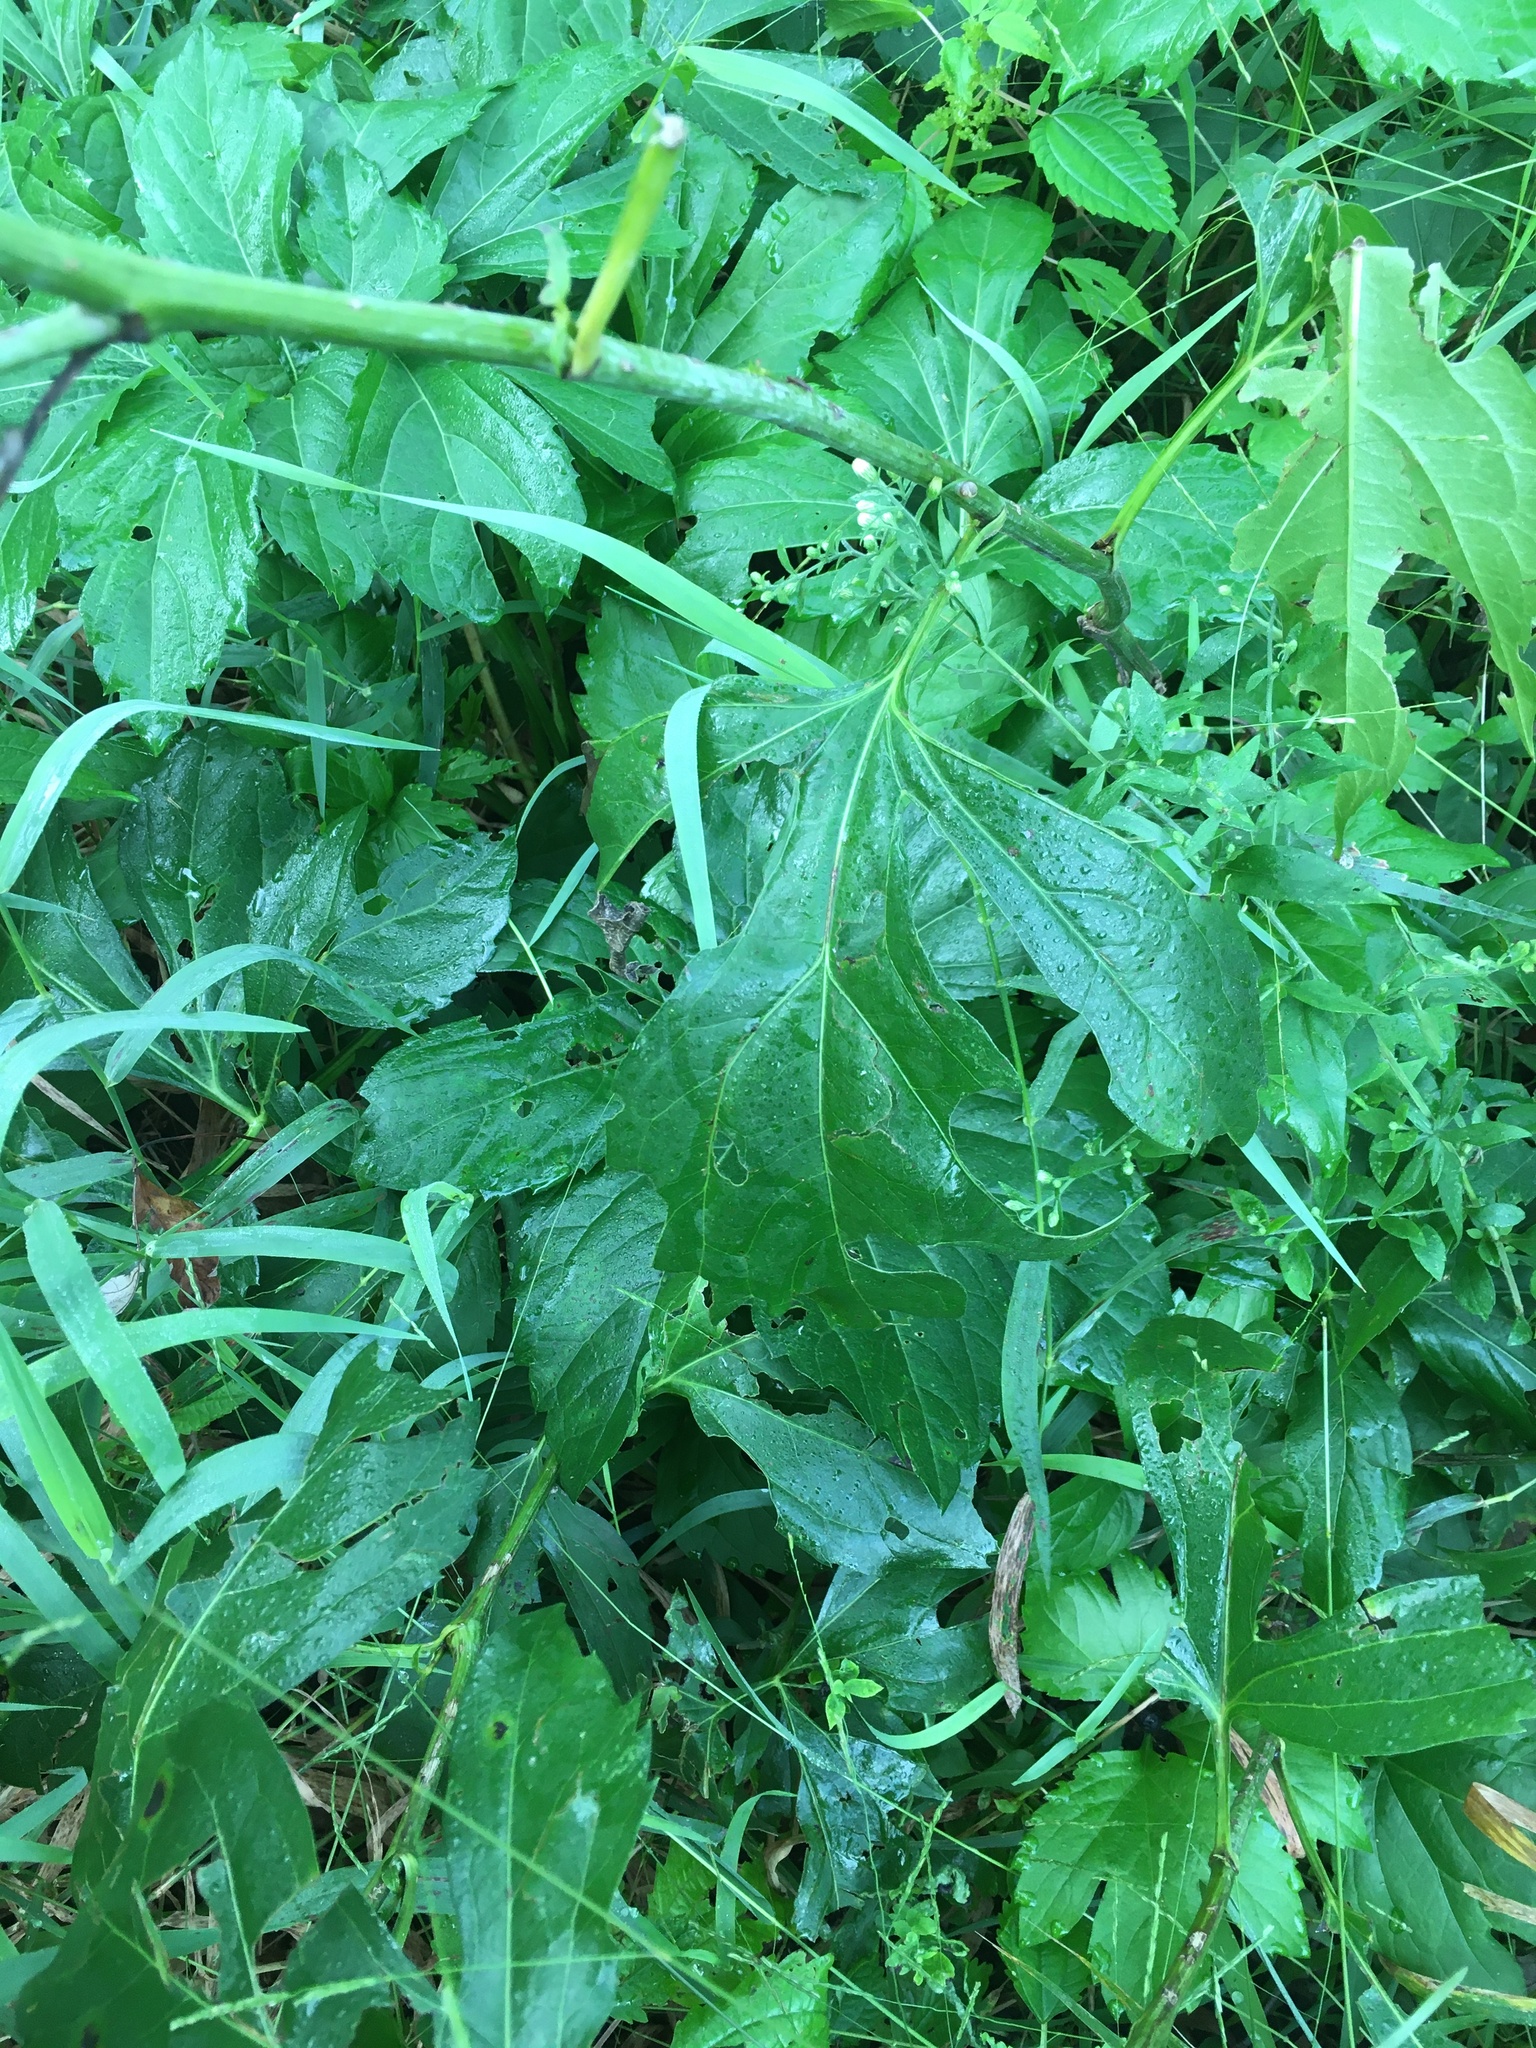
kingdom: Plantae
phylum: Tracheophyta
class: Magnoliopsida
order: Asterales
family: Asteraceae
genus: Rudbeckia
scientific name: Rudbeckia laciniata
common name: Coneflower
